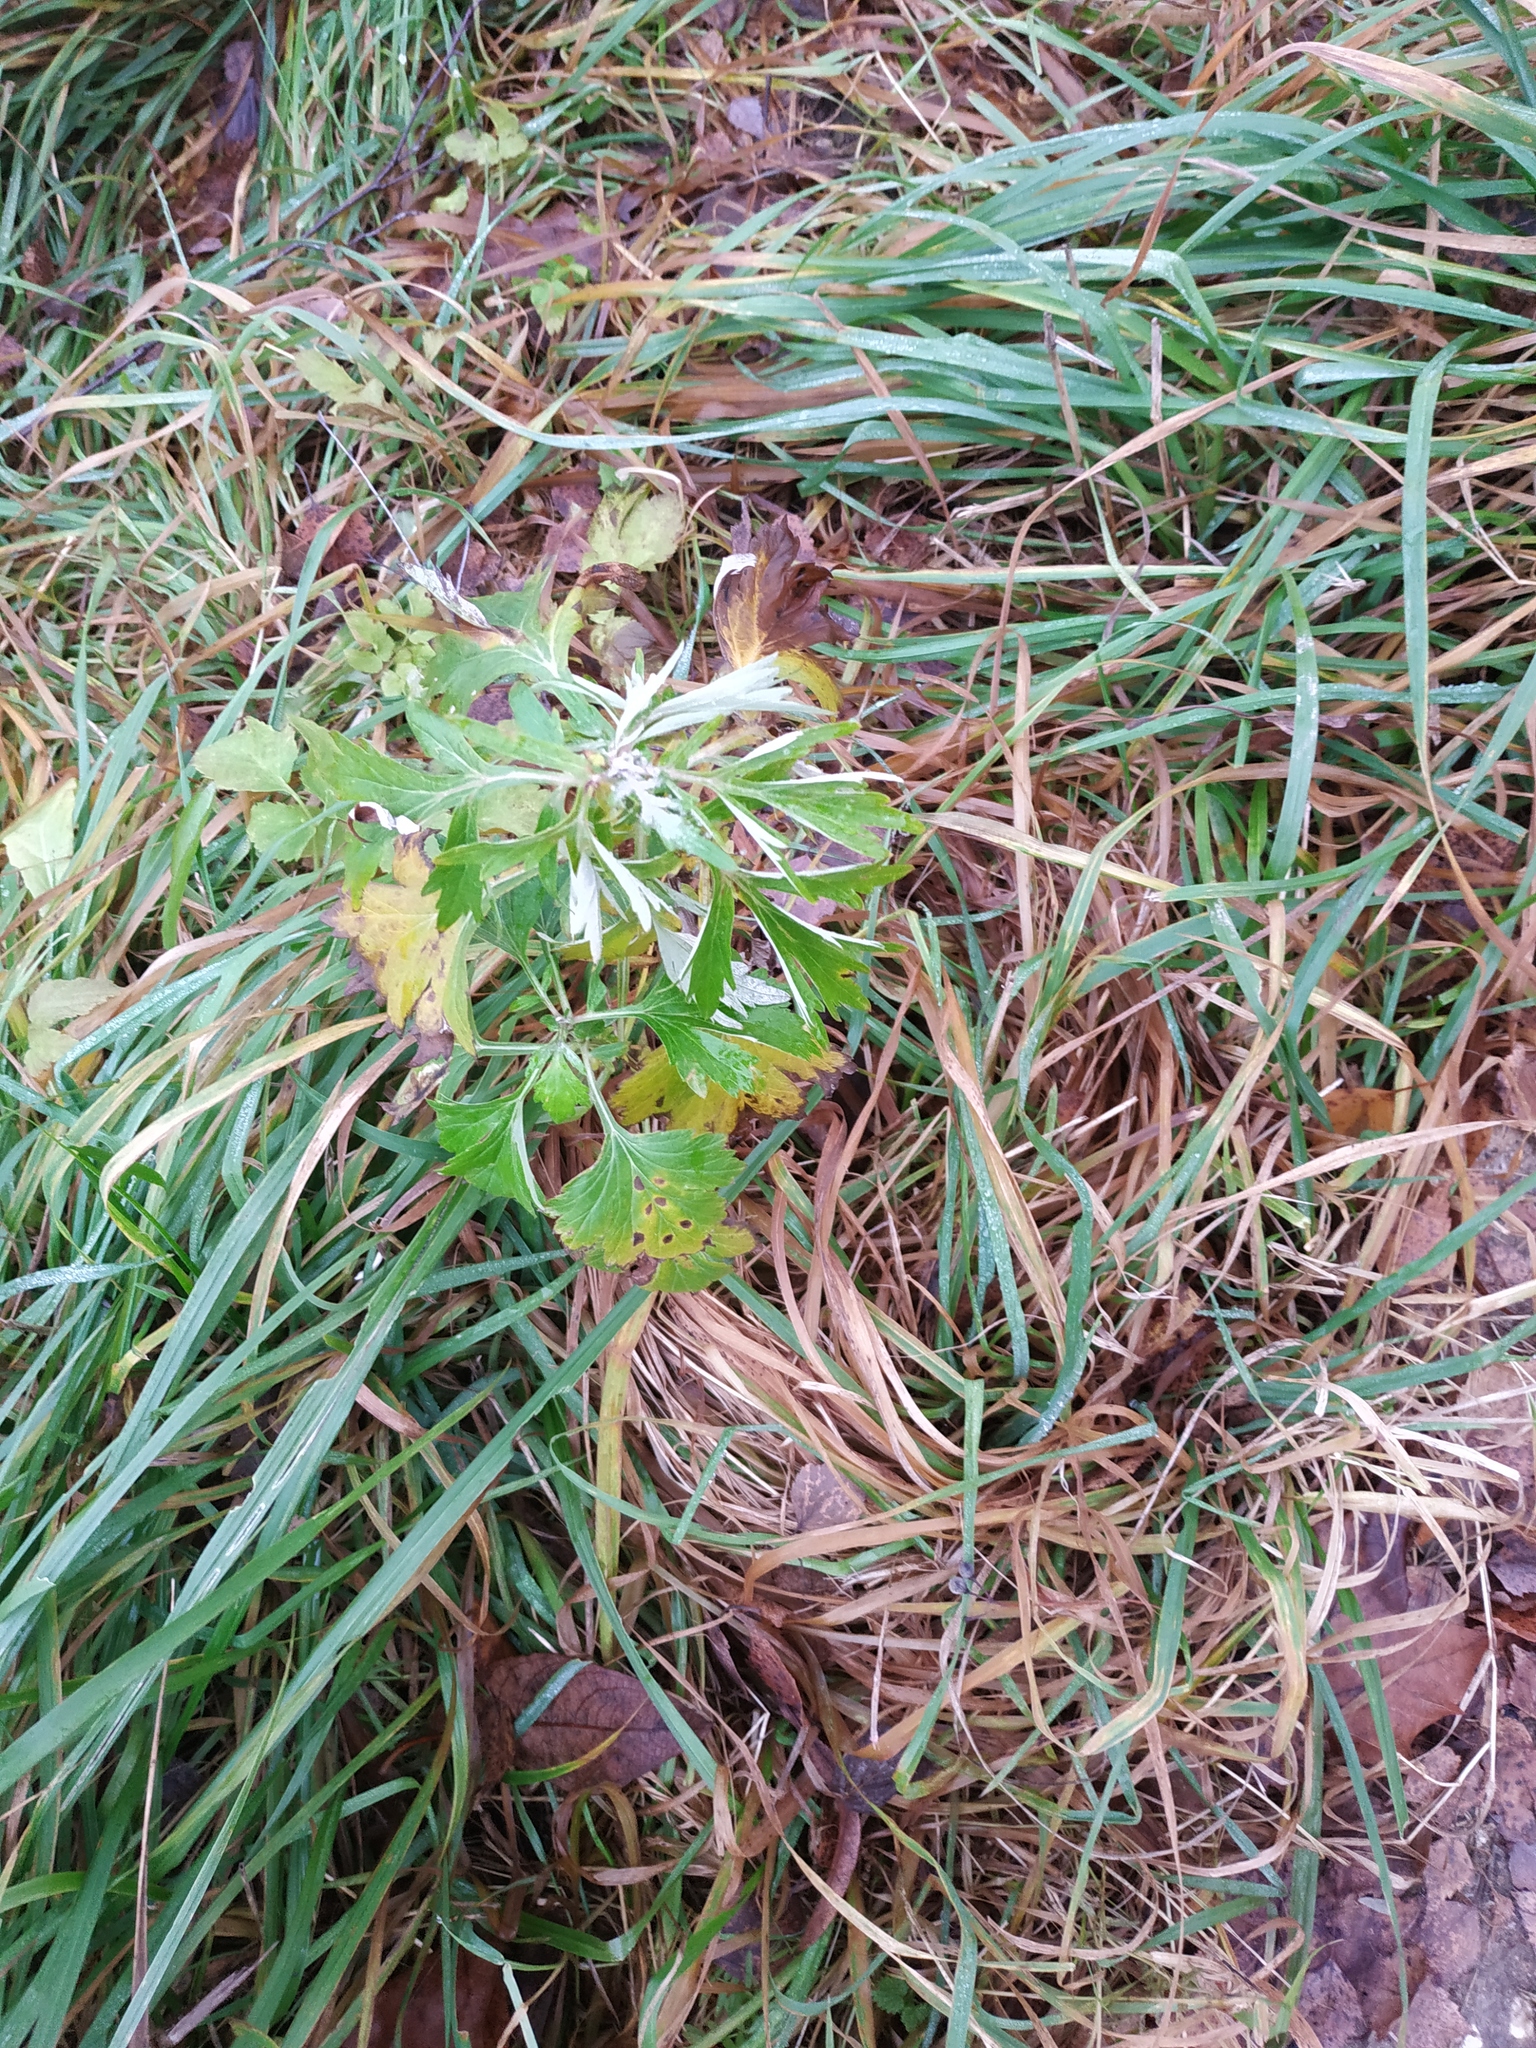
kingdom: Plantae
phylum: Tracheophyta
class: Magnoliopsida
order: Asterales
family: Asteraceae
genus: Artemisia
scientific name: Artemisia vulgaris
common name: Mugwort
